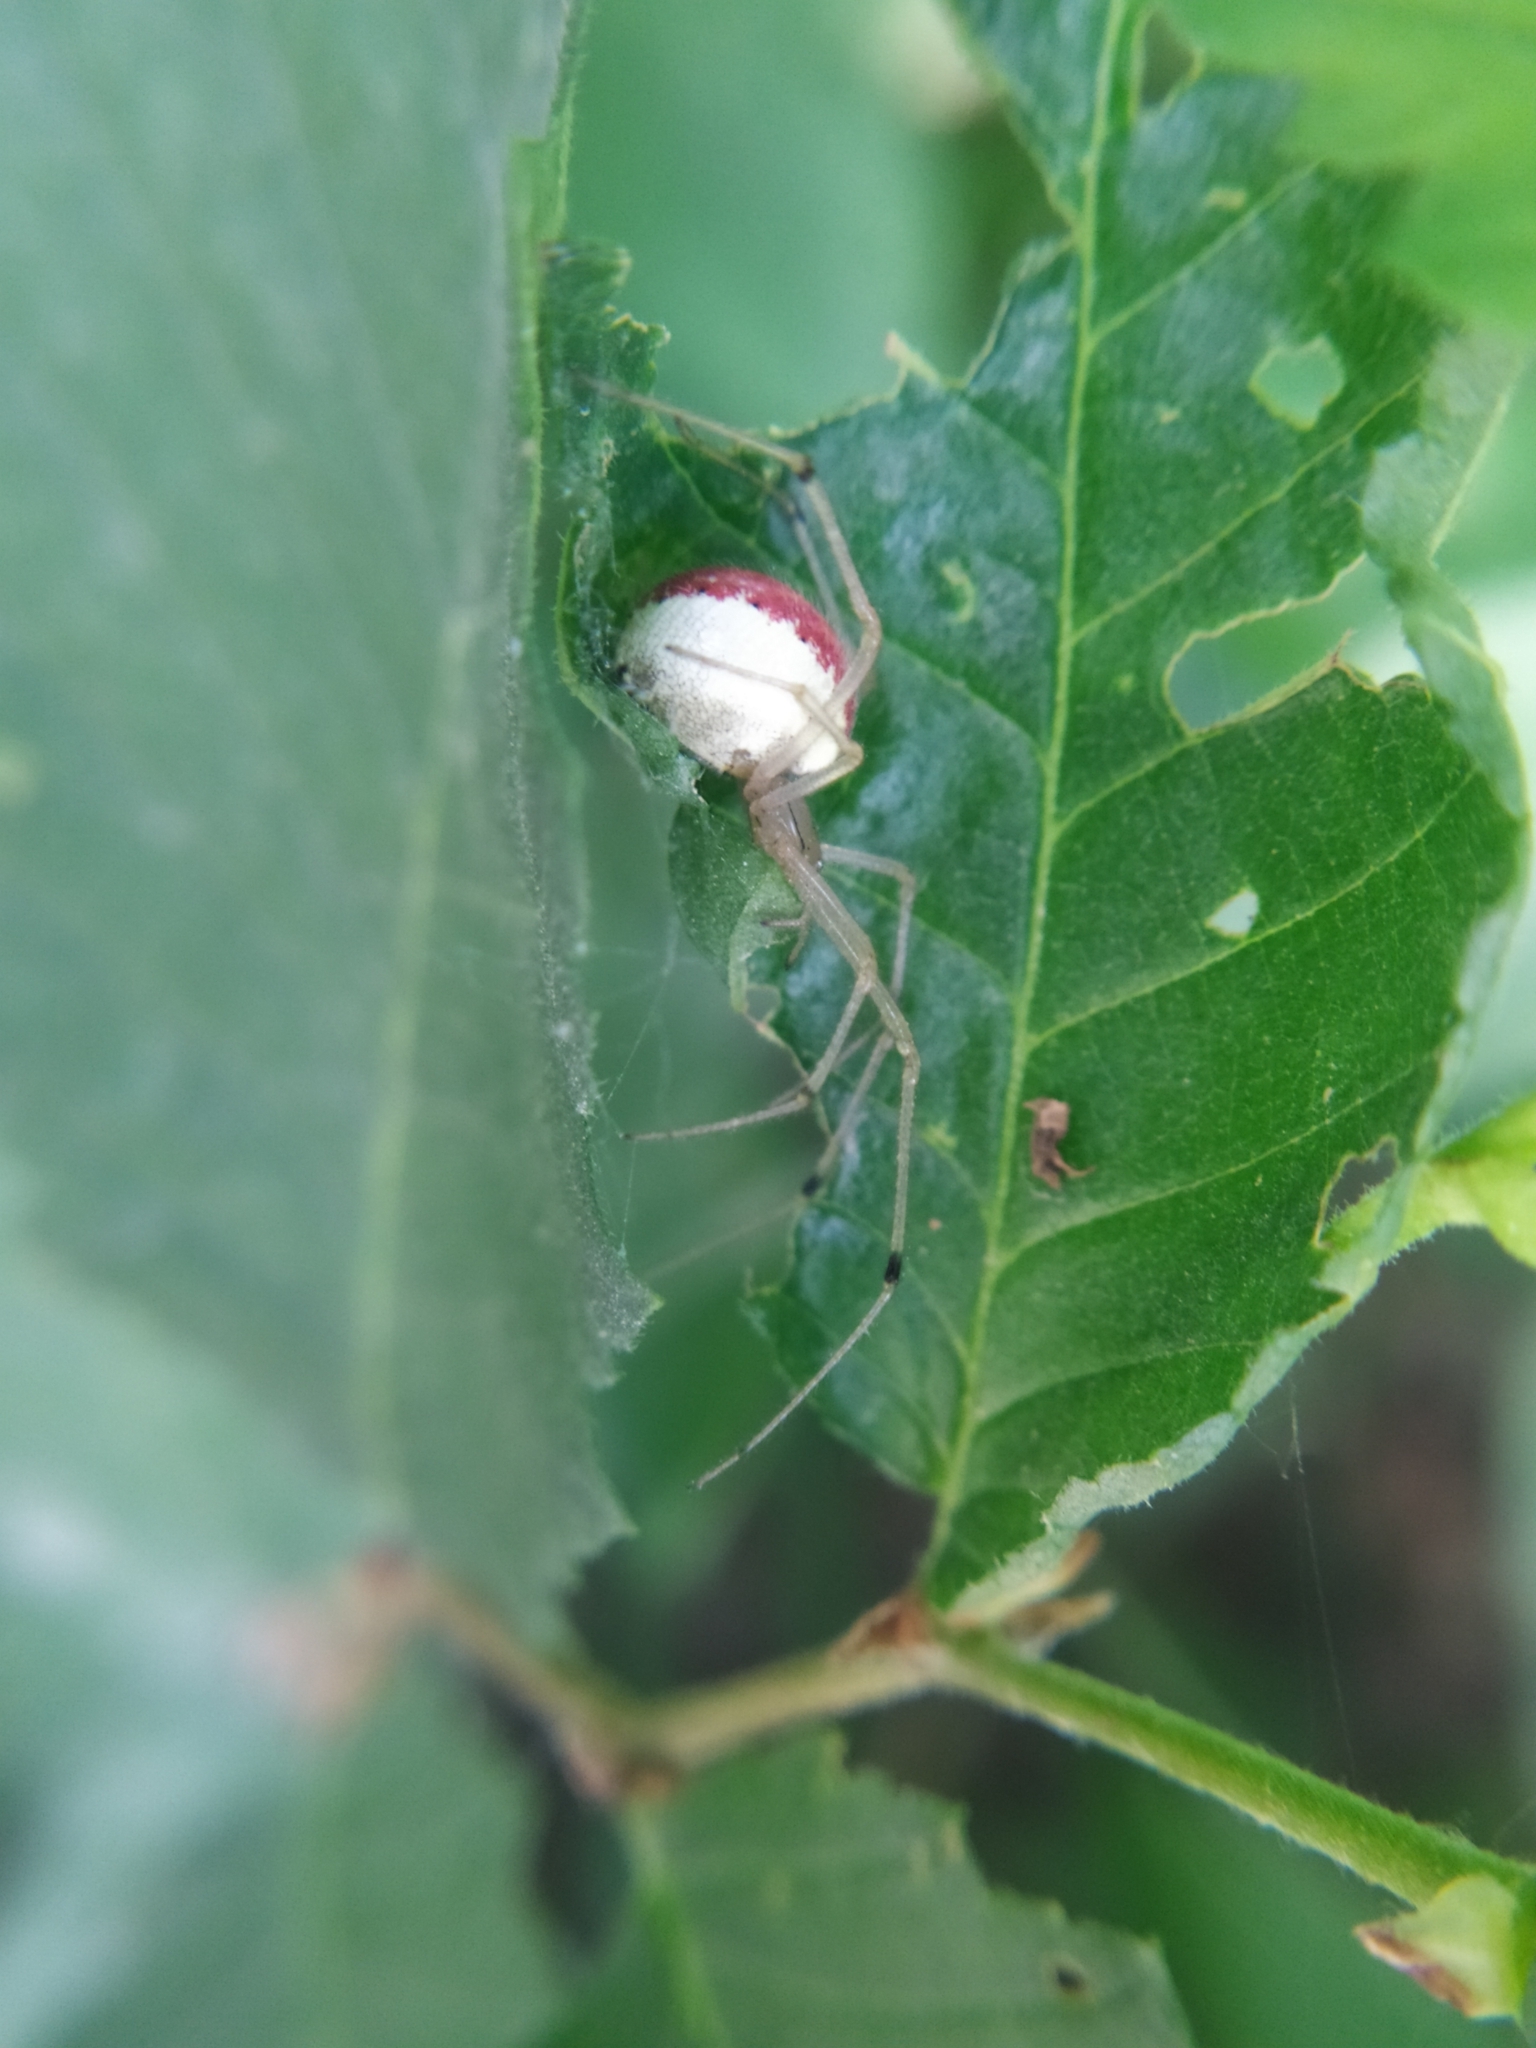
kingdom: Animalia
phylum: Arthropoda
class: Arachnida
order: Araneae
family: Theridiidae
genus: Enoplognatha
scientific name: Enoplognatha
